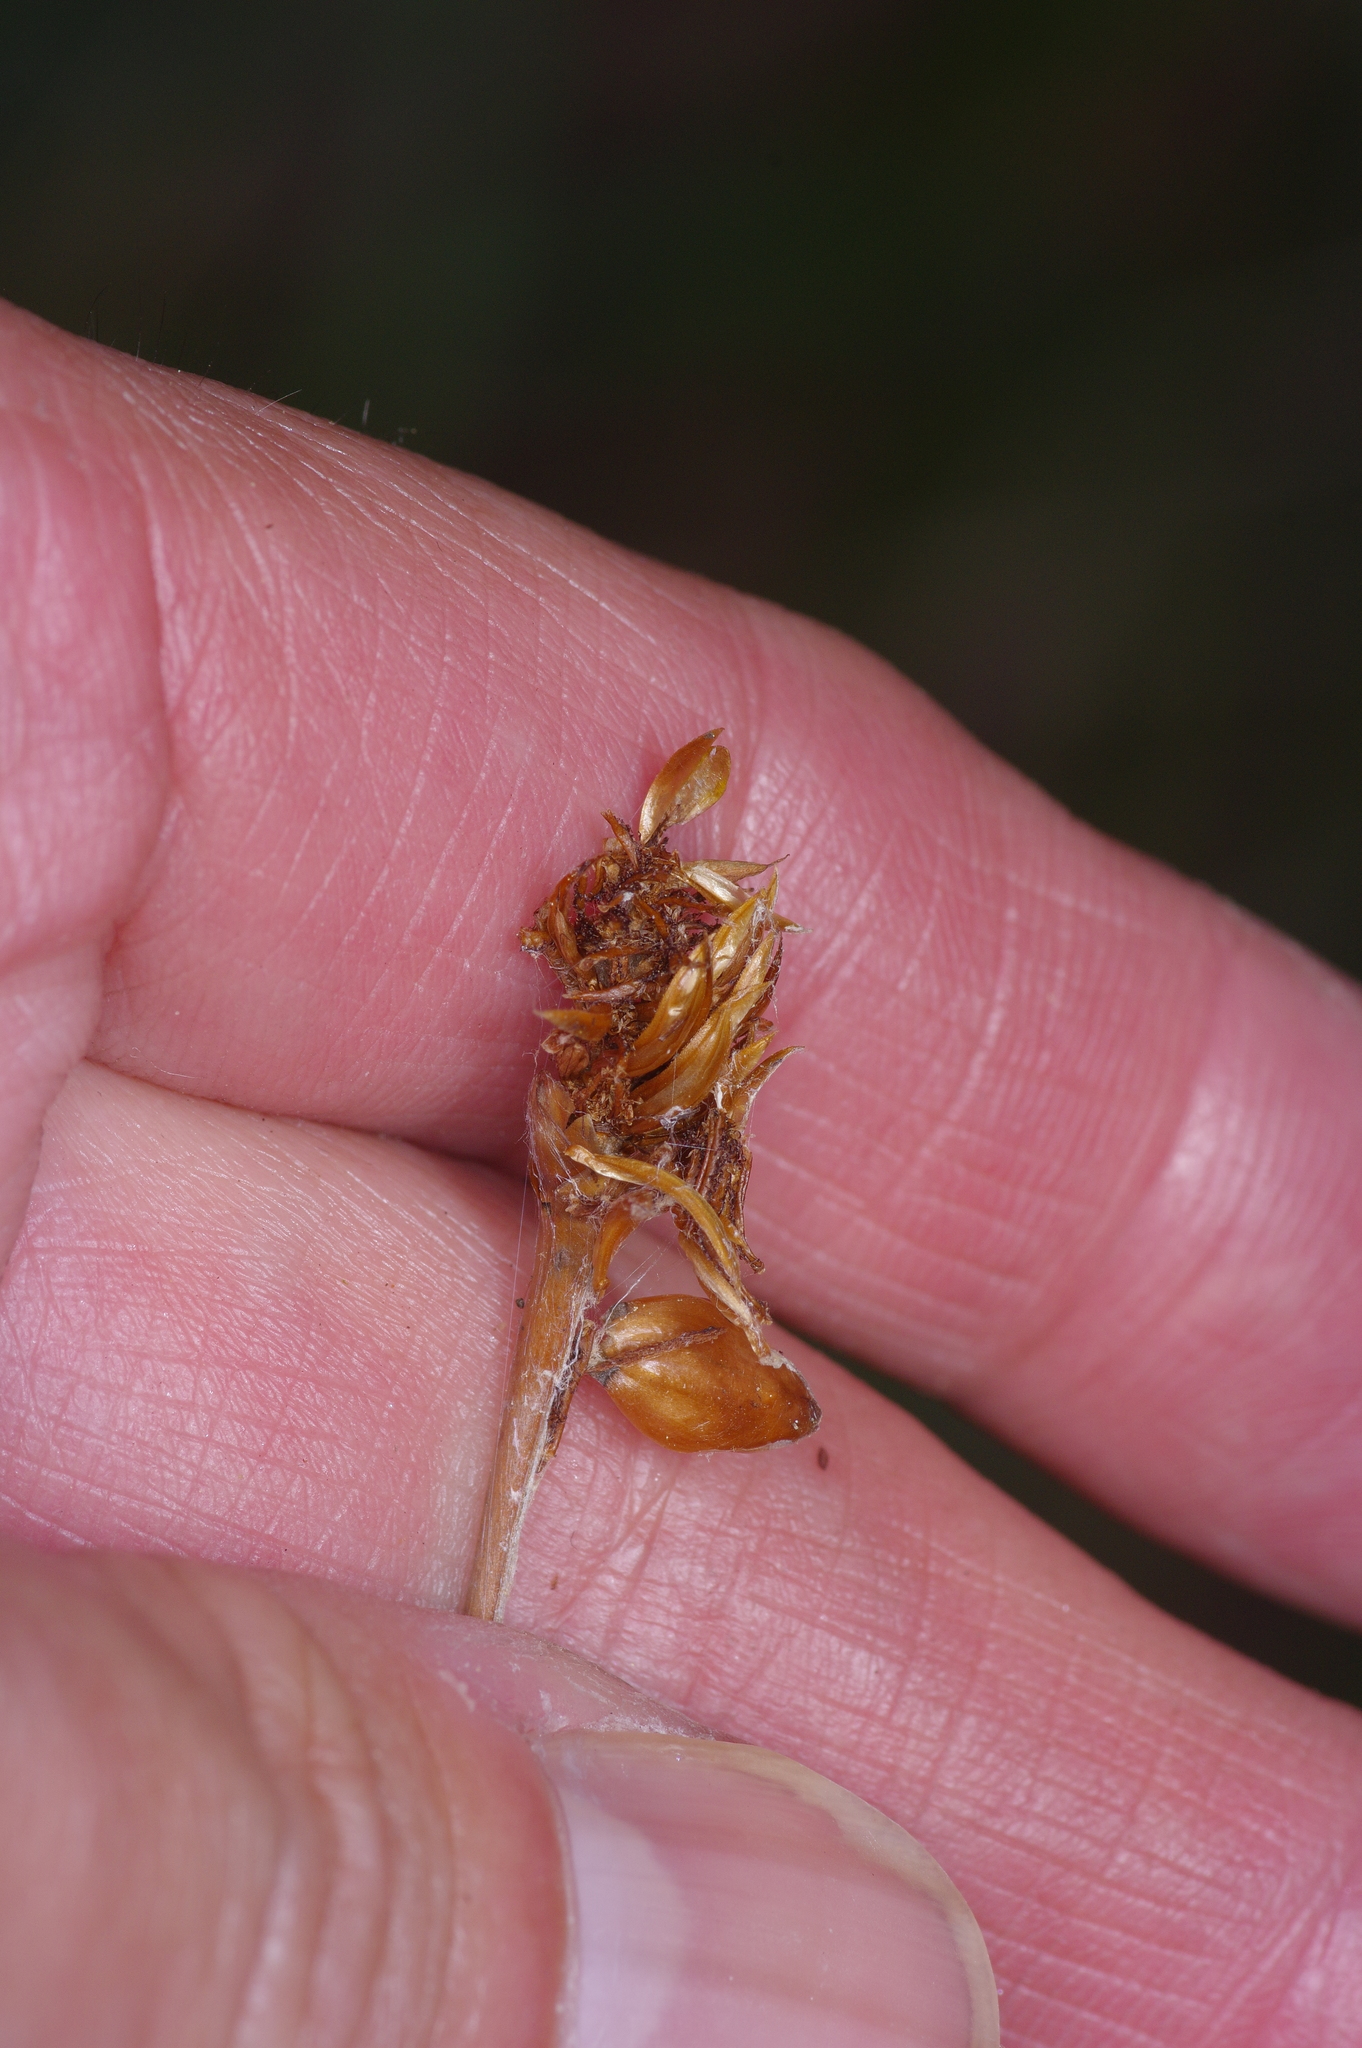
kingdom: Plantae
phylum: Tracheophyta
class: Liliopsida
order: Poales
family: Xyridaceae
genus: Xyris
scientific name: Xyris ambigua
